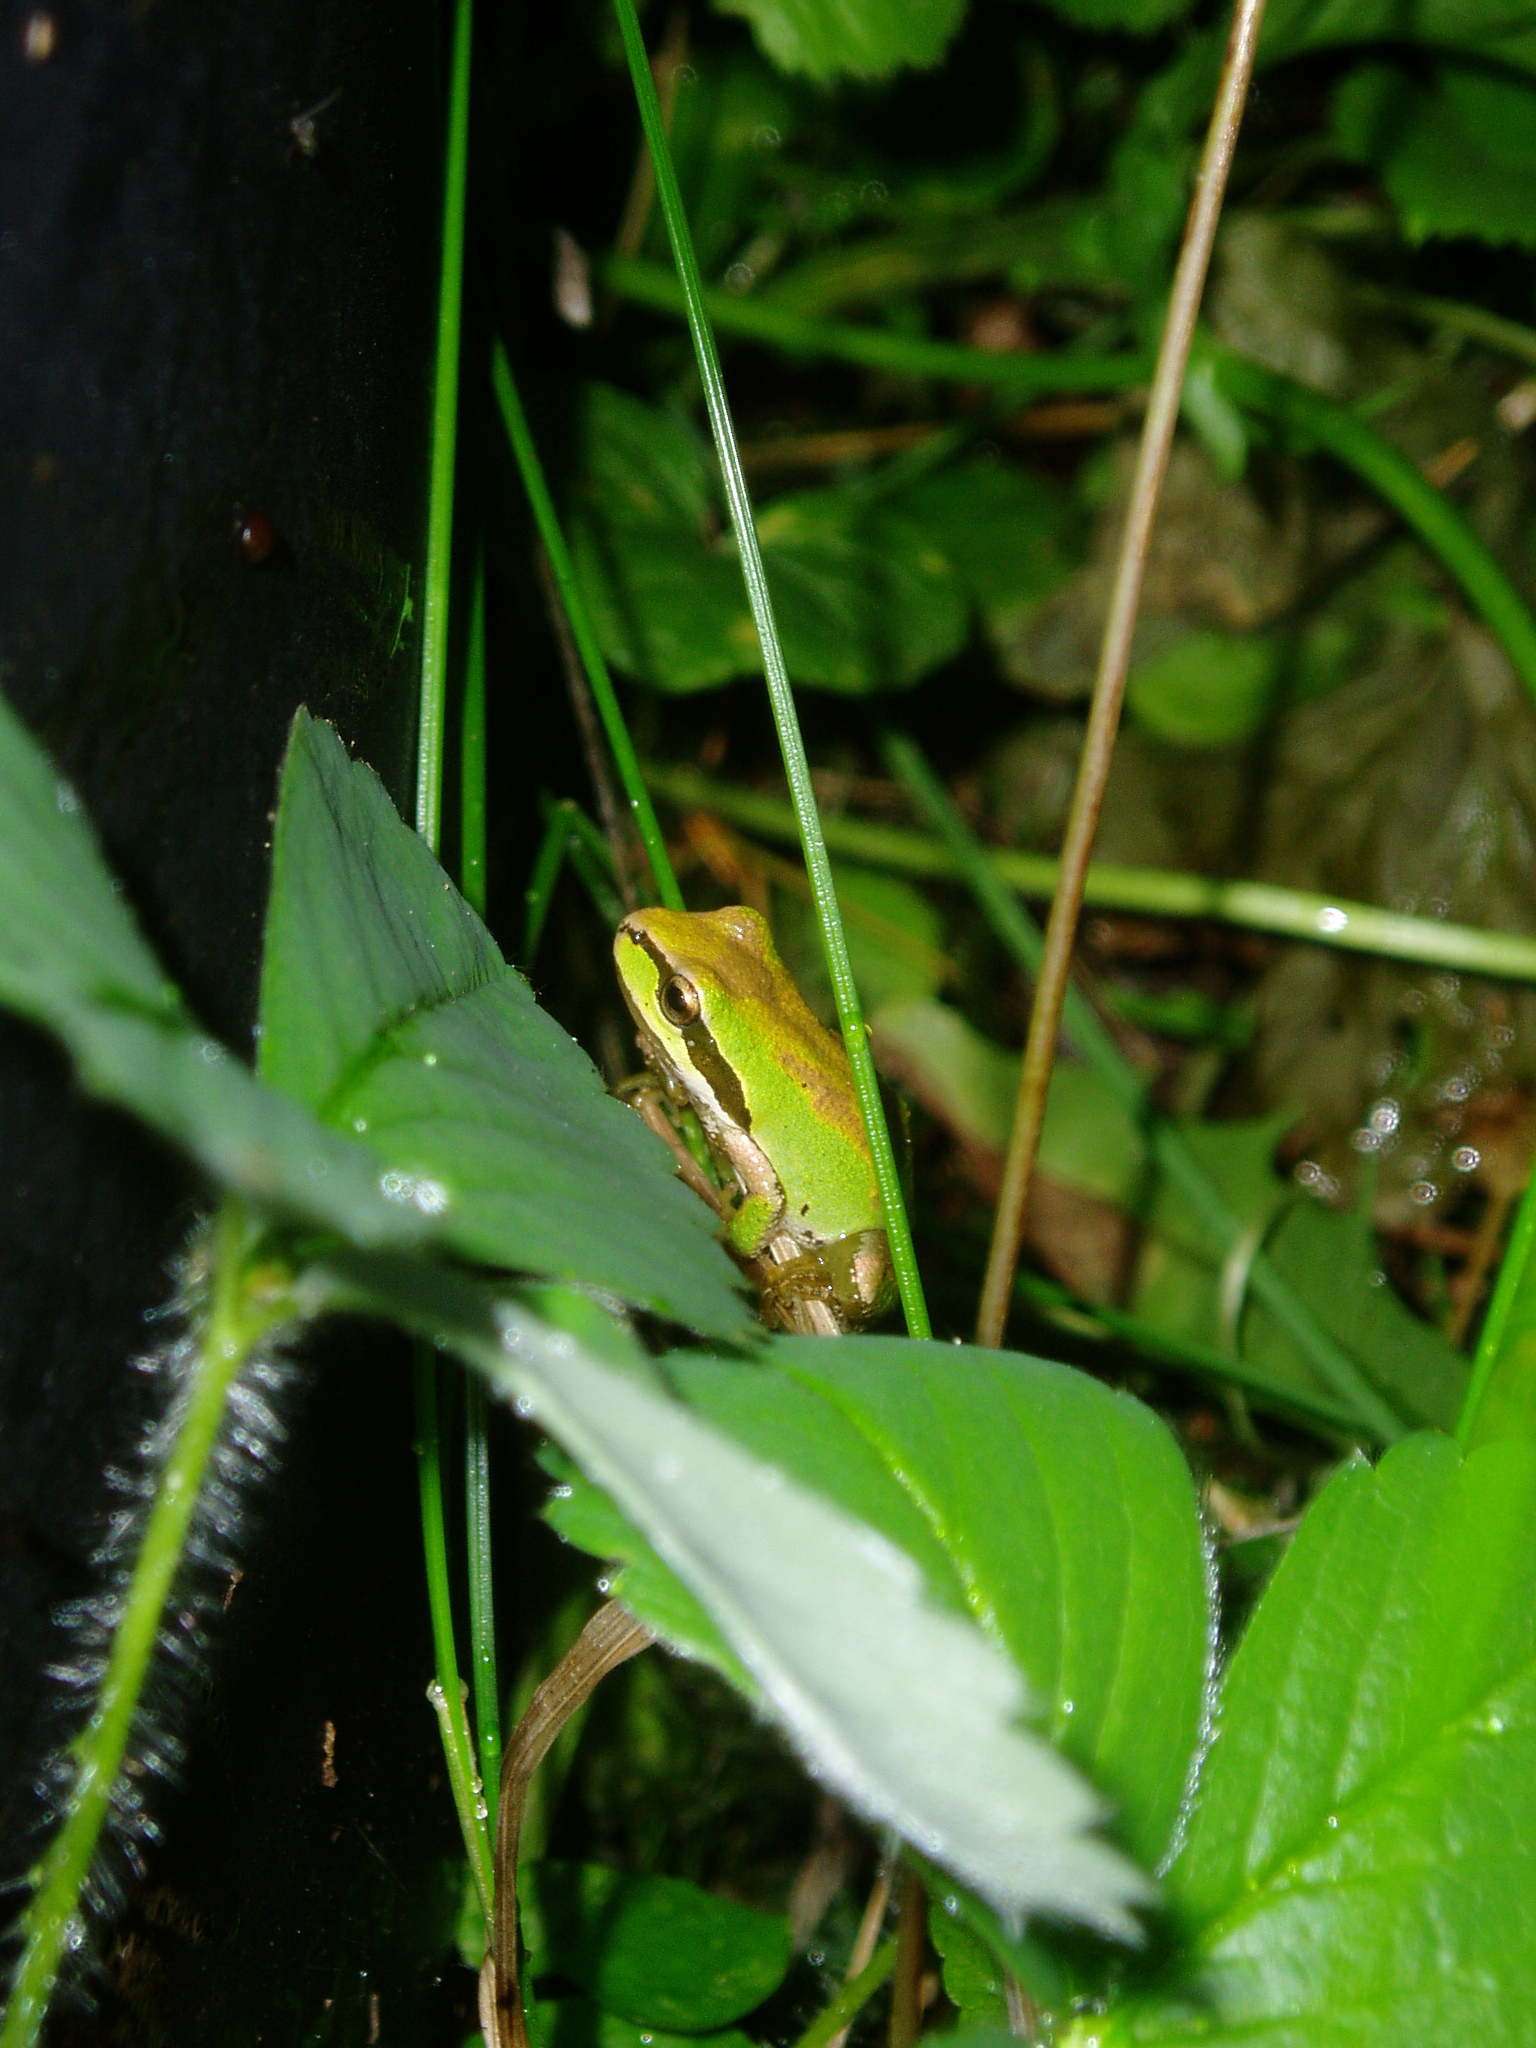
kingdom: Animalia
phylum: Chordata
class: Amphibia
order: Anura
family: Hylidae
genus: Pseudacris
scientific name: Pseudacris regilla
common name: Pacific chorus frog
